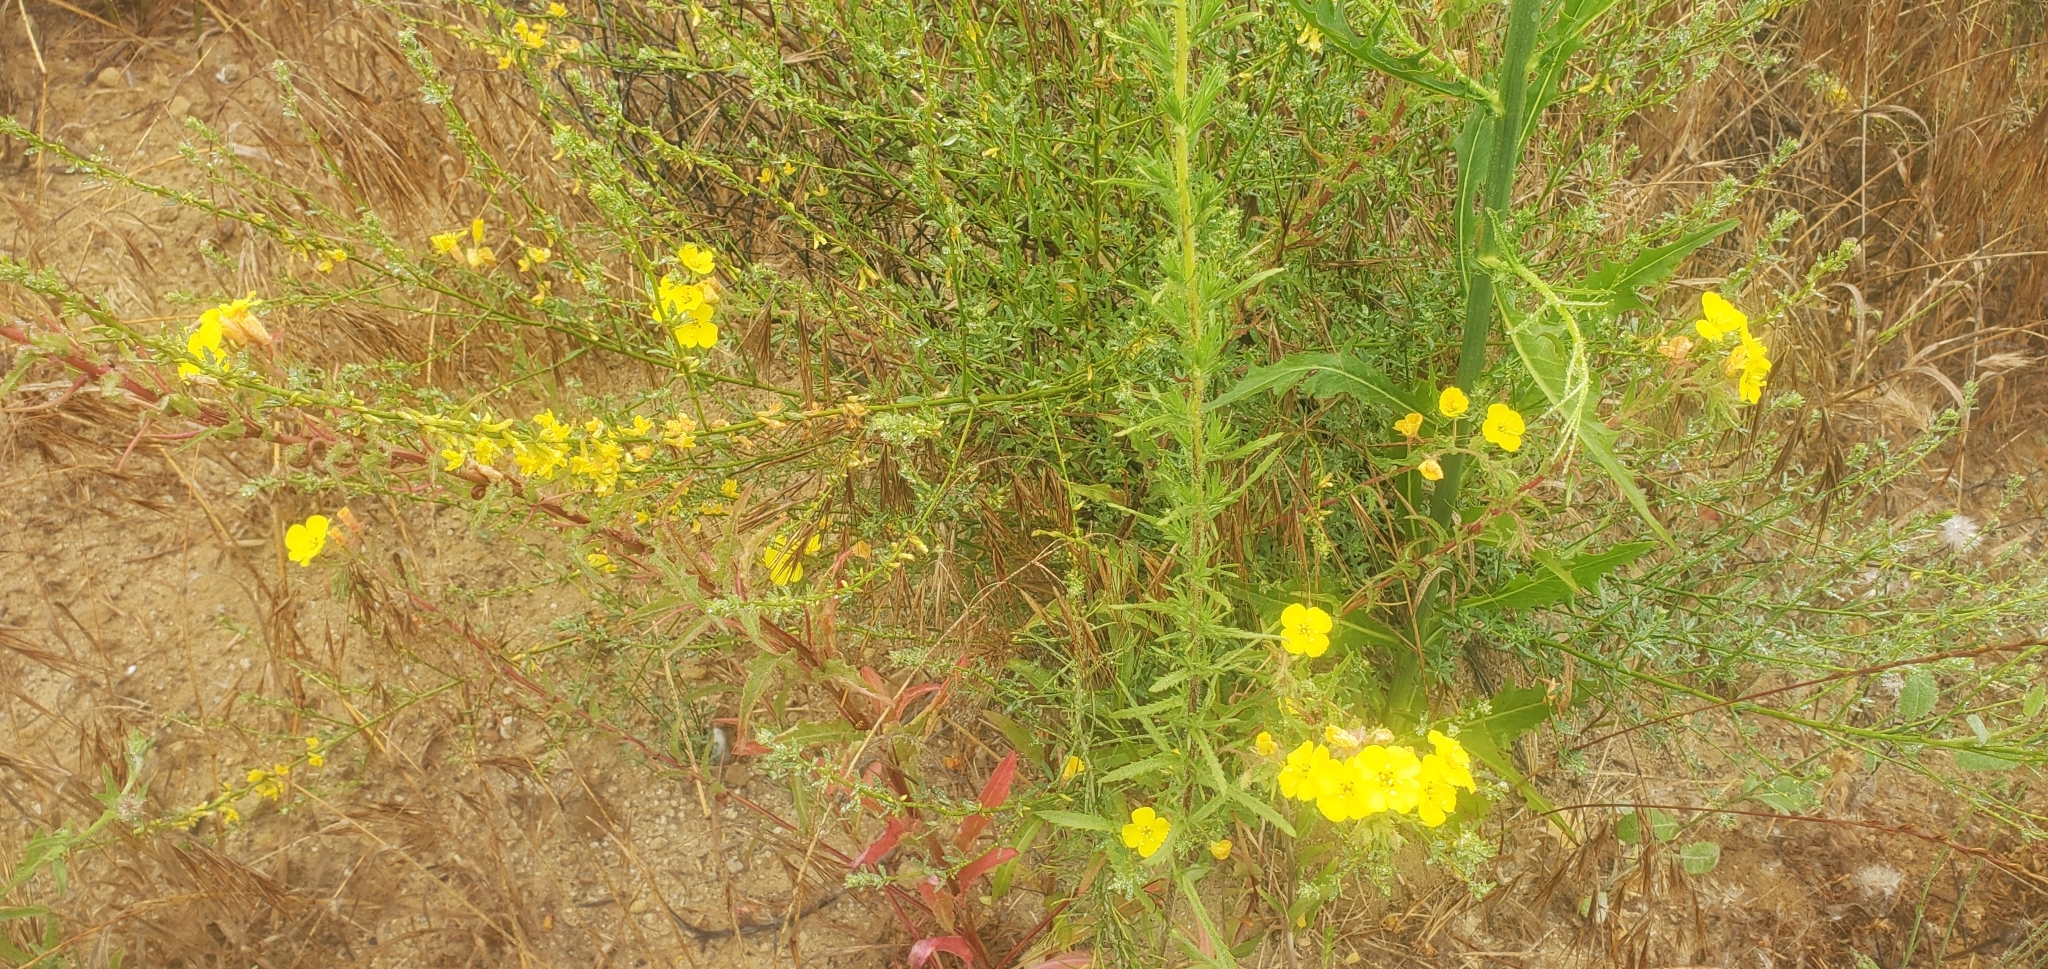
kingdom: Plantae
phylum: Tracheophyta
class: Magnoliopsida
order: Myrtales
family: Onagraceae
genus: Camissoniopsis
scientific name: Camissoniopsis bistorta
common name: Southern suncup
